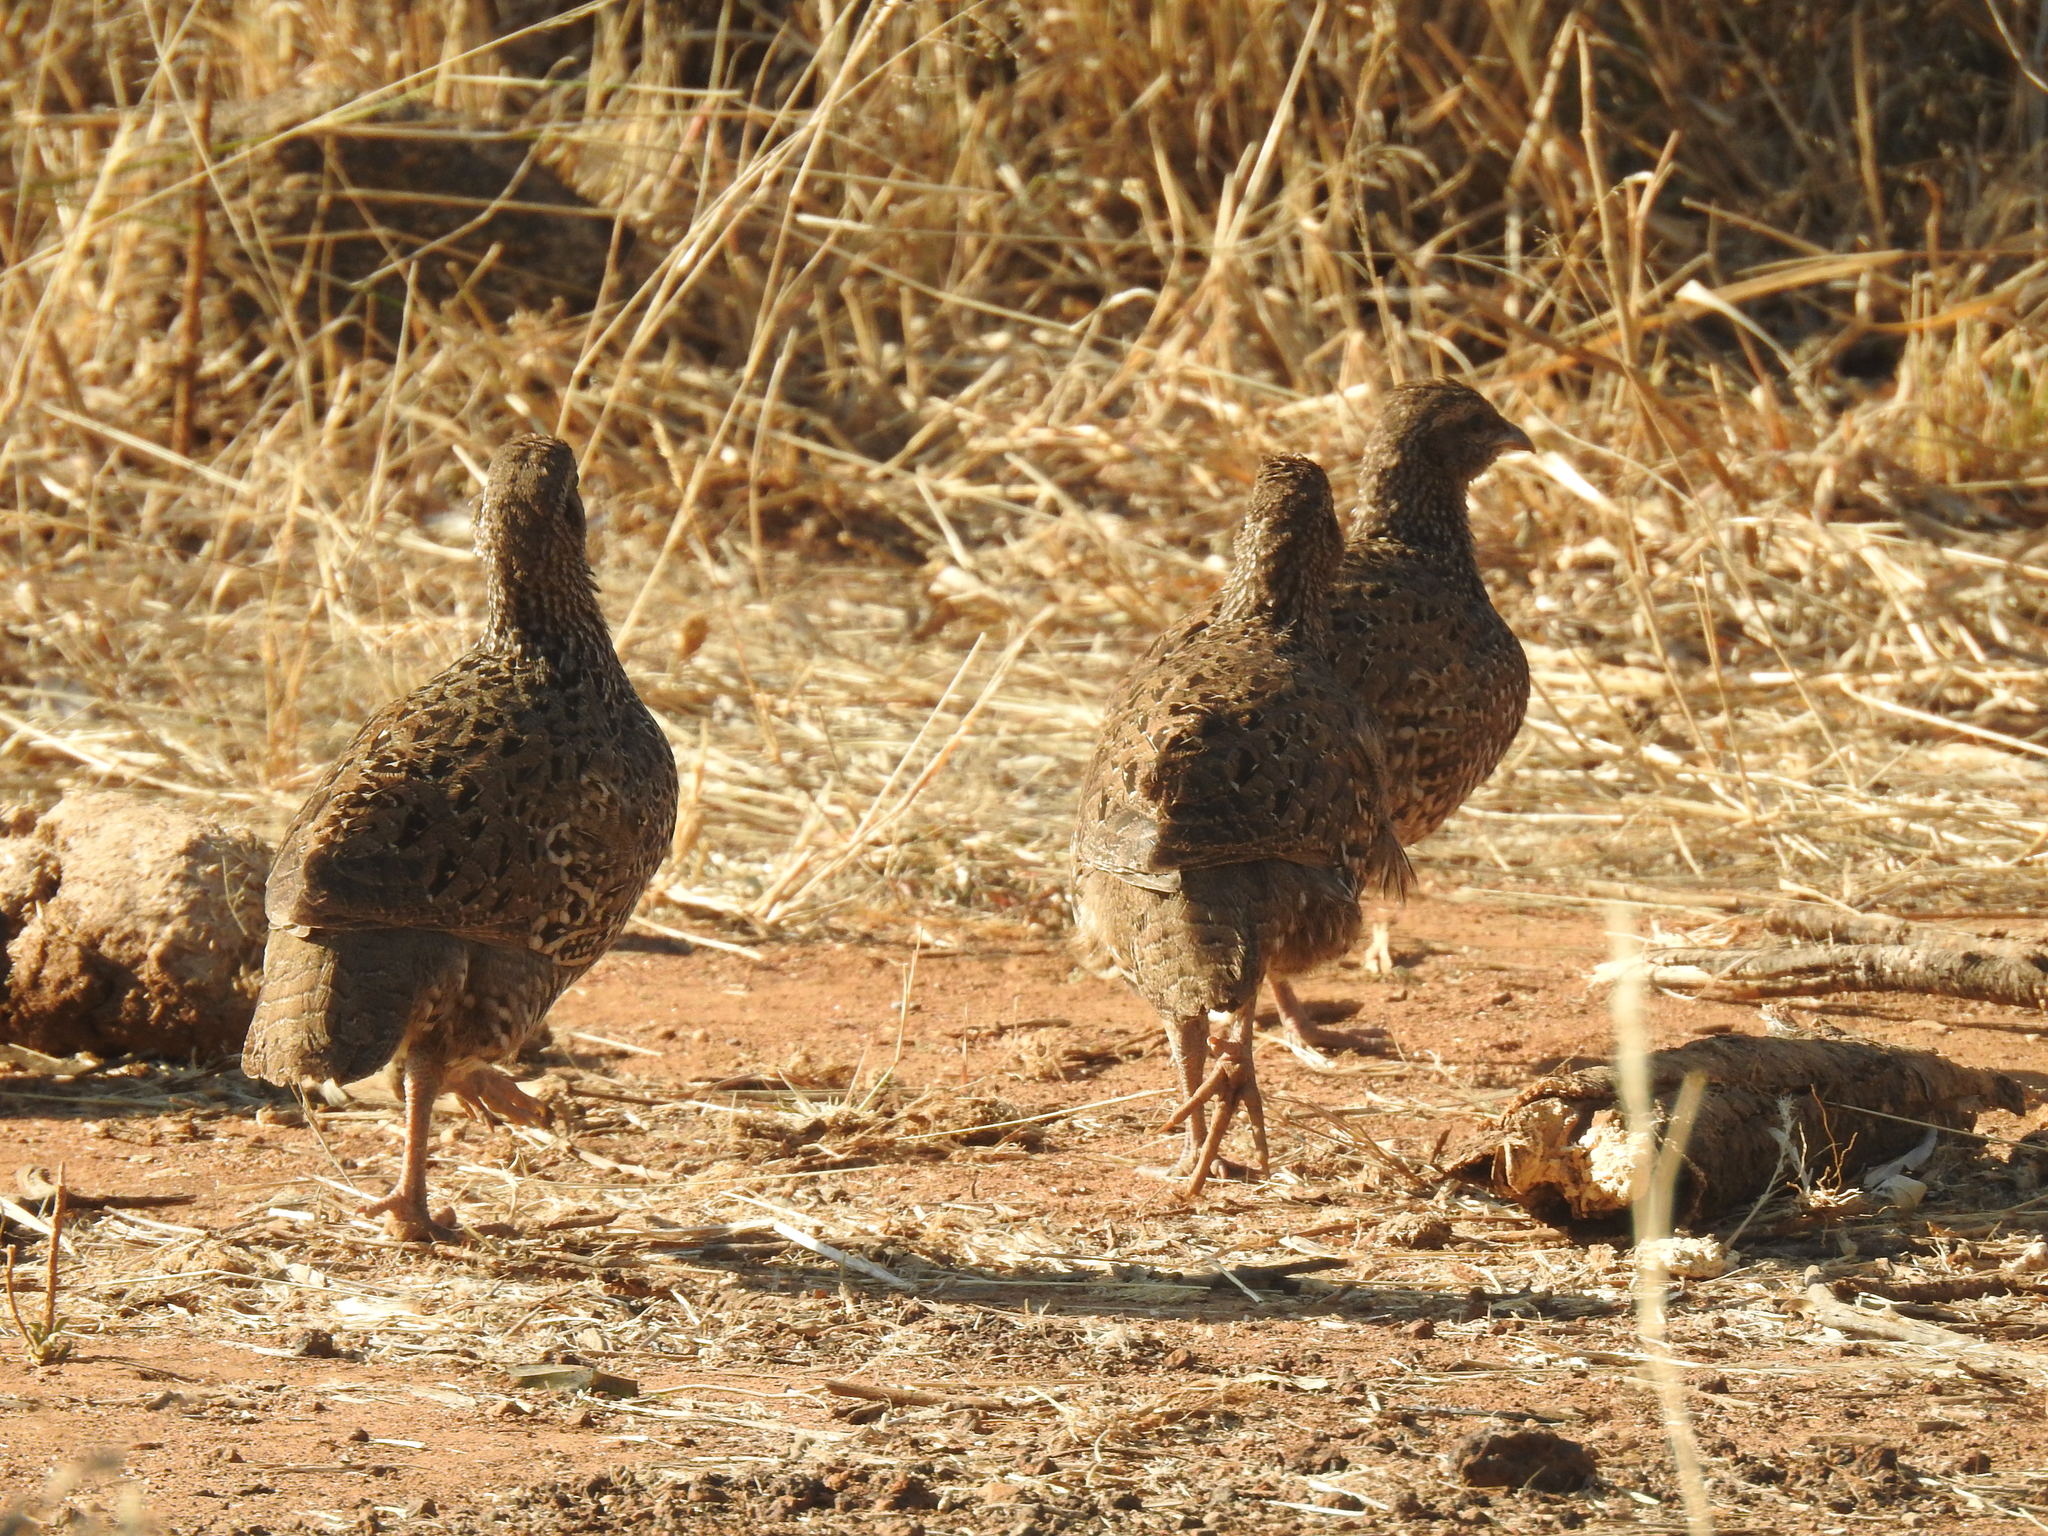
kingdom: Animalia
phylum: Chordata
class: Aves
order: Galliformes
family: Phasianidae
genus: Pternistis
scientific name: Pternistis natalensis
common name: Natal spurfowl
